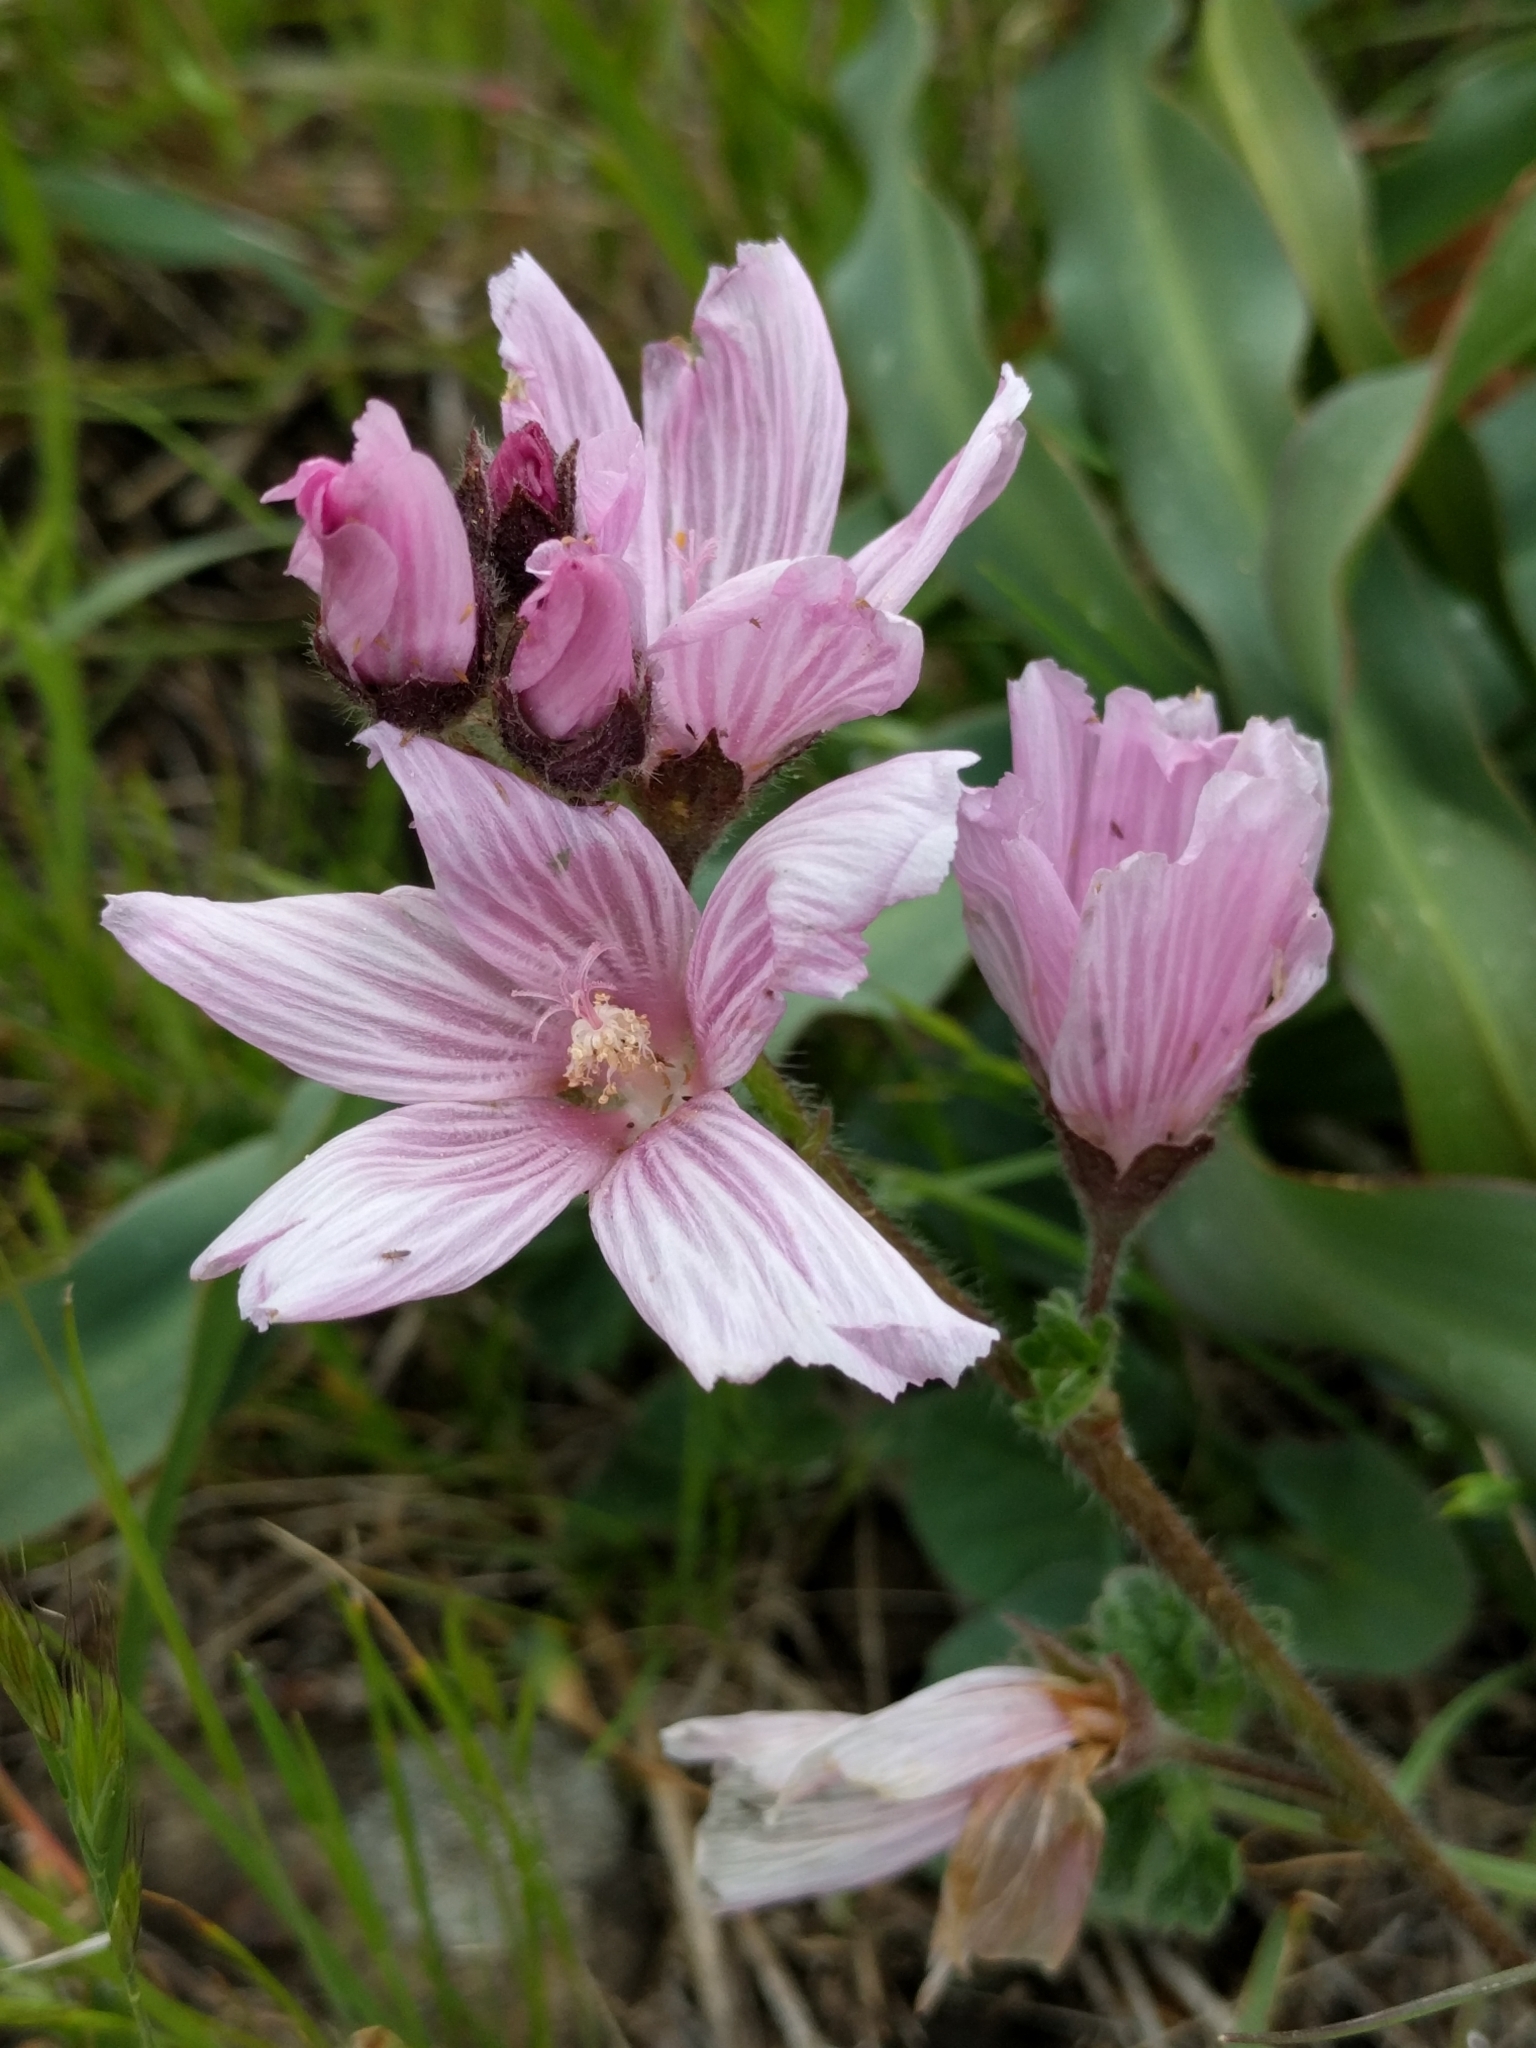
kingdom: Plantae
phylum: Tracheophyta
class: Magnoliopsida
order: Malvales
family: Malvaceae
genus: Sidalcea
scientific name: Sidalcea malviflora
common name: Greek mallow
